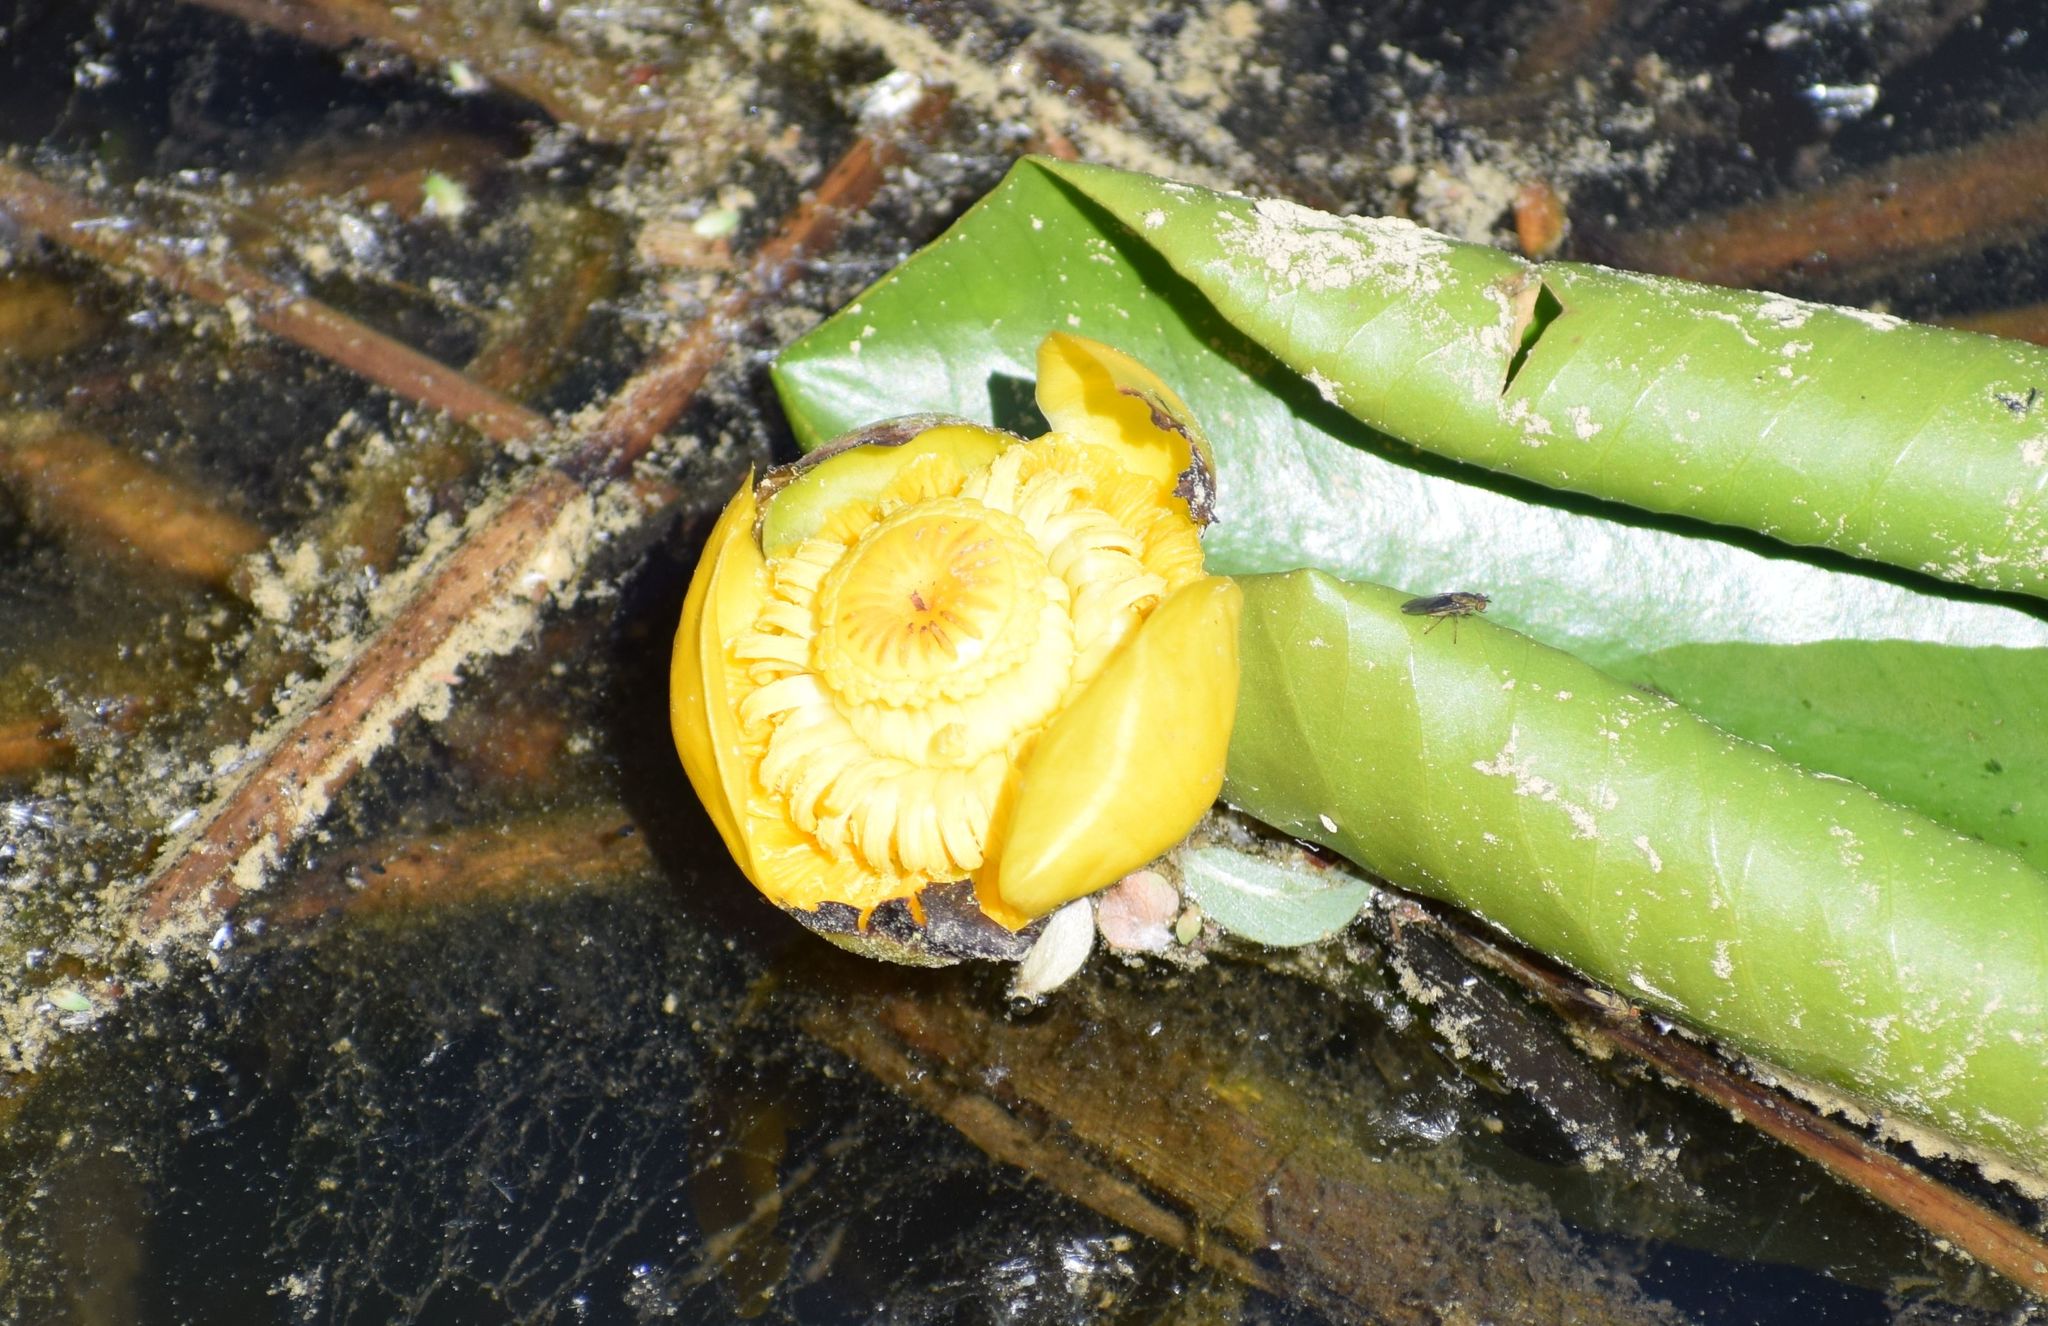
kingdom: Plantae
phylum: Tracheophyta
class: Magnoliopsida
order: Nymphaeales
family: Nymphaeaceae
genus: Nuphar
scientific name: Nuphar lutea
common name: Yellow water-lily
